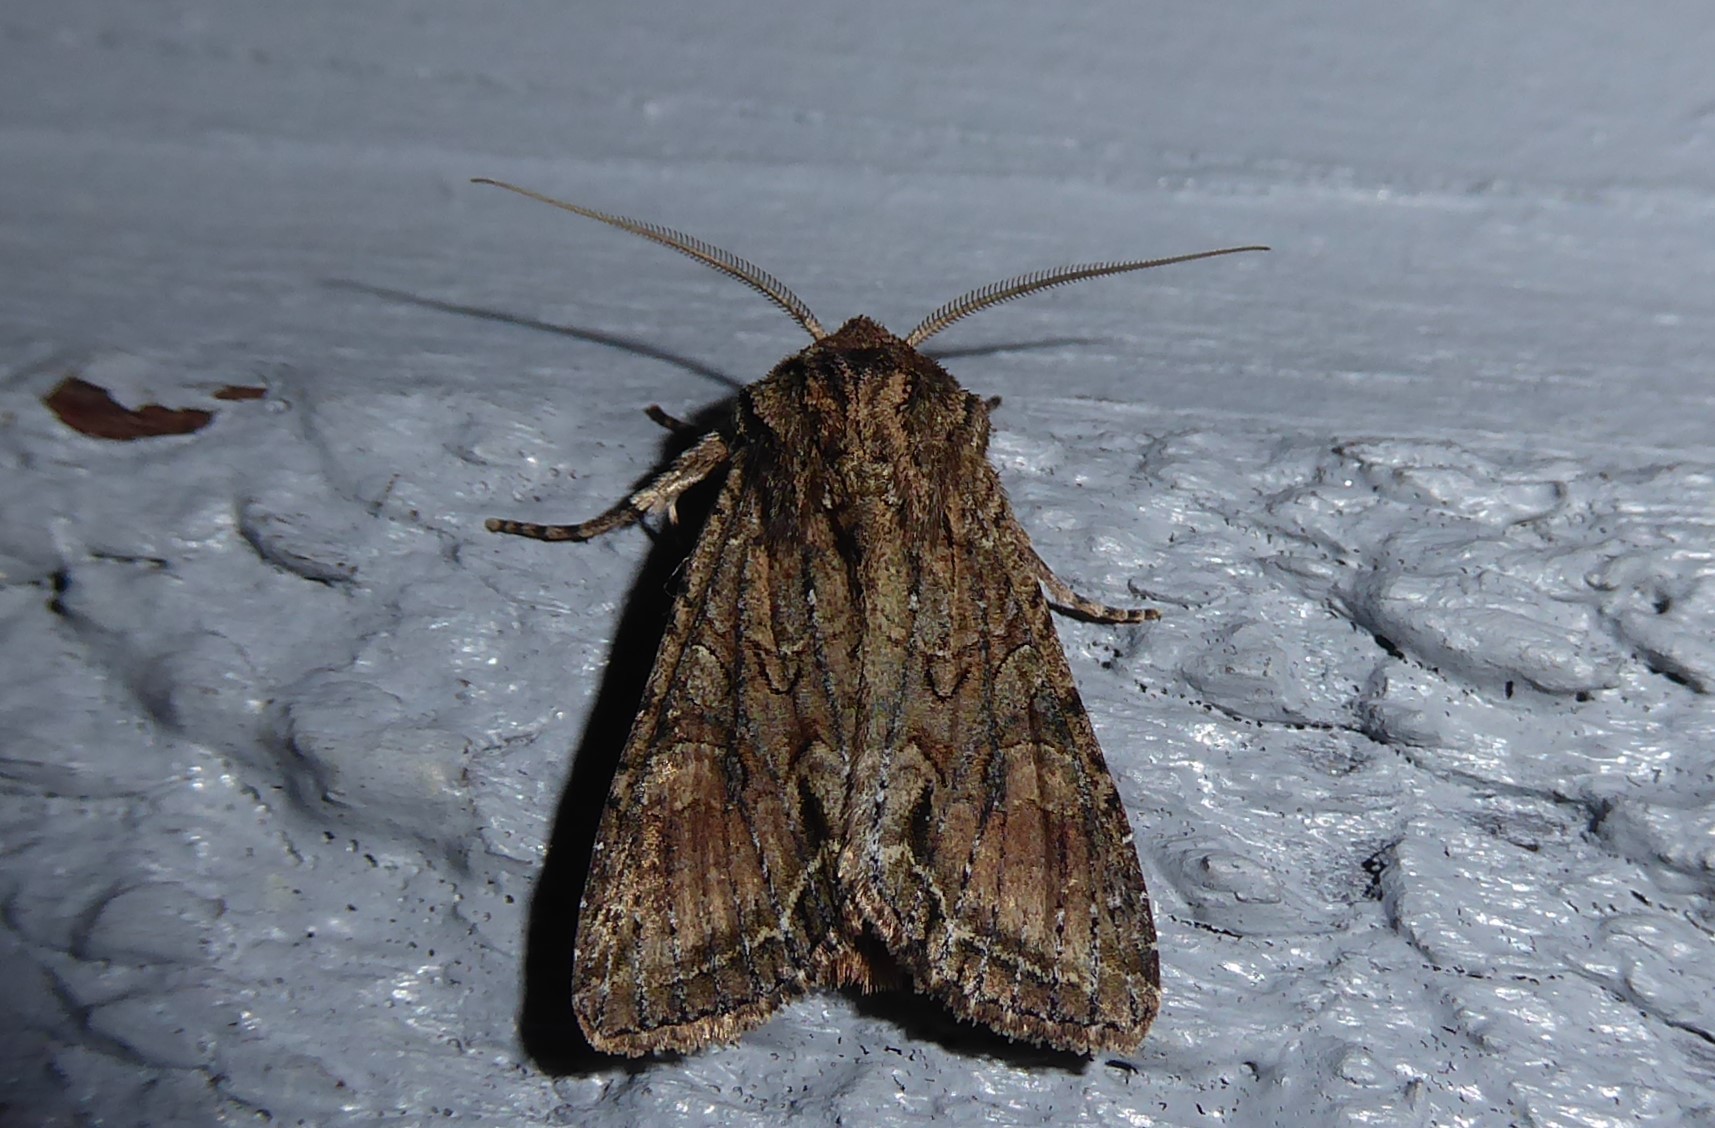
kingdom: Animalia
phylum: Arthropoda
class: Insecta
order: Lepidoptera
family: Noctuidae
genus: Ichneutica
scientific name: Ichneutica mutans
